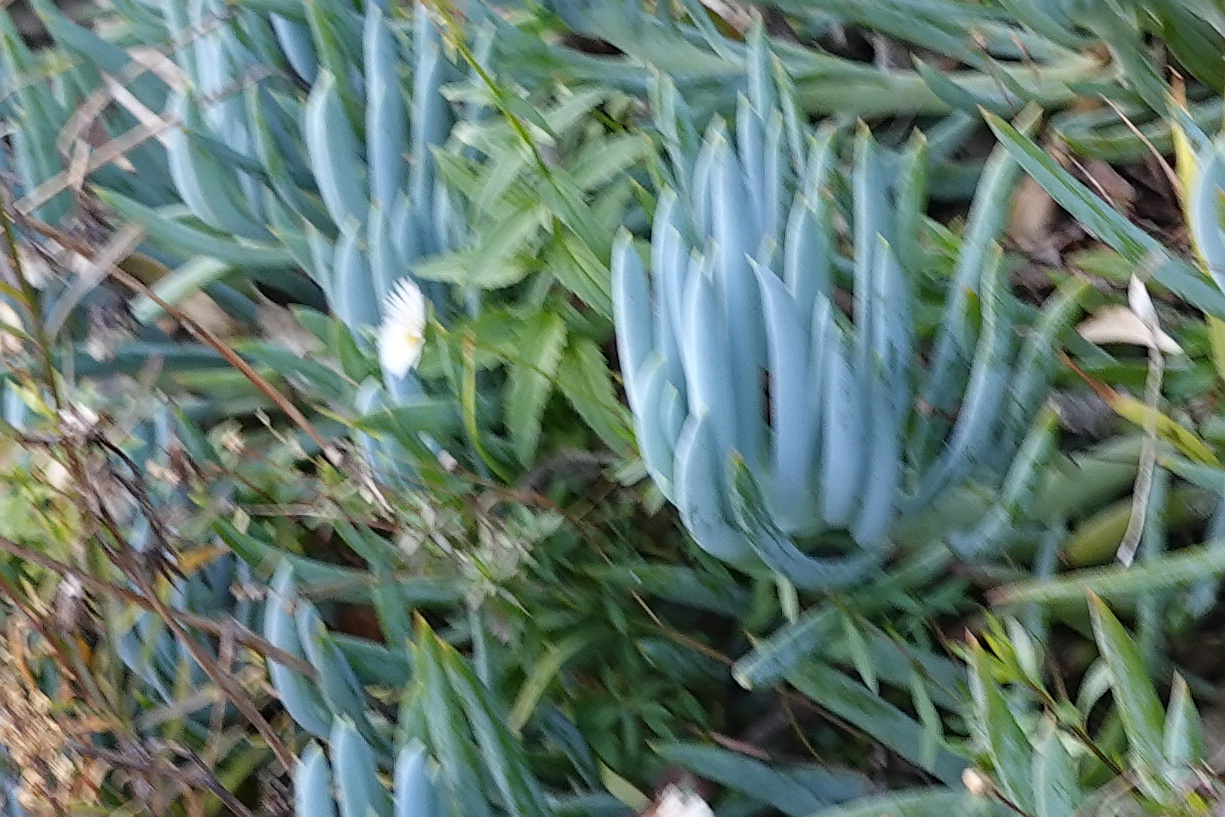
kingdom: Plantae
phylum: Tracheophyta
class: Magnoliopsida
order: Asterales
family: Asteraceae
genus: Erigeron
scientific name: Erigeron karvinskianus
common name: Mexican fleabane
